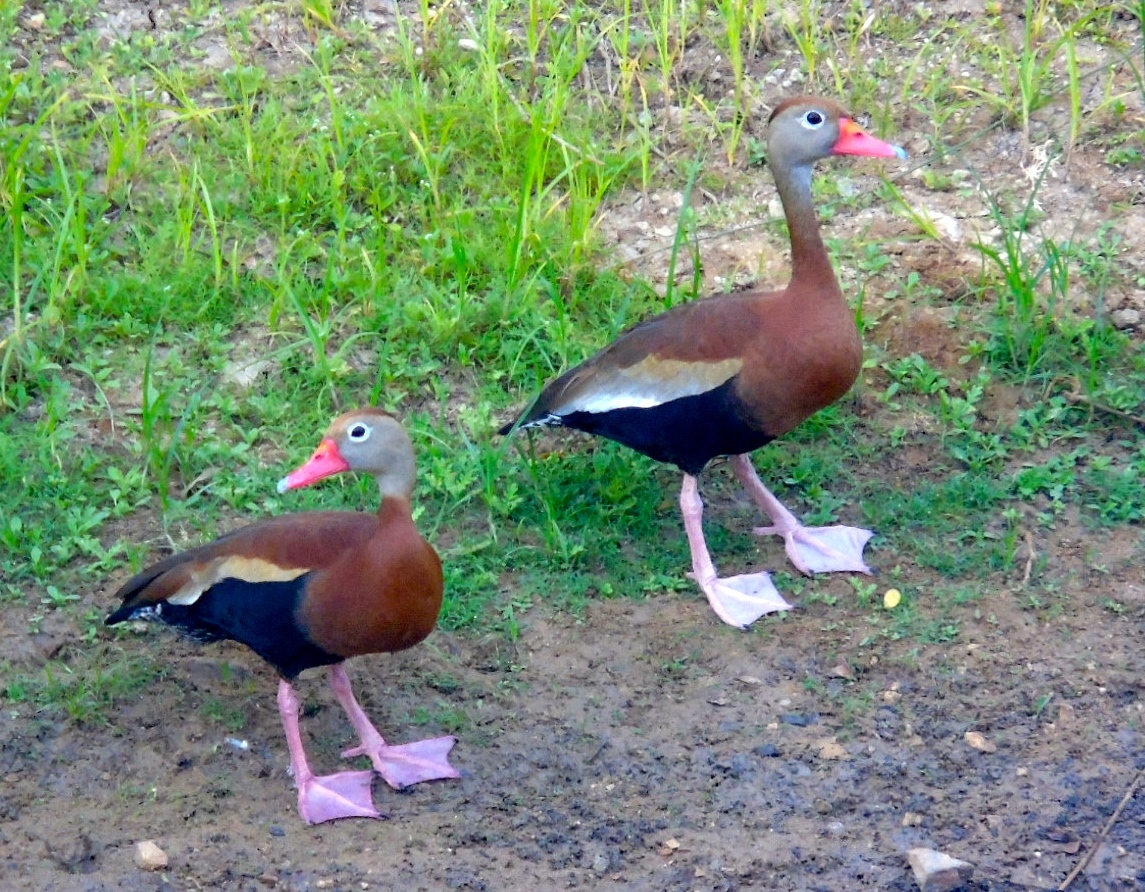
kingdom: Animalia
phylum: Chordata
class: Aves
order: Anseriformes
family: Anatidae
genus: Dendrocygna
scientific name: Dendrocygna autumnalis
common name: Black-bellied whistling duck
